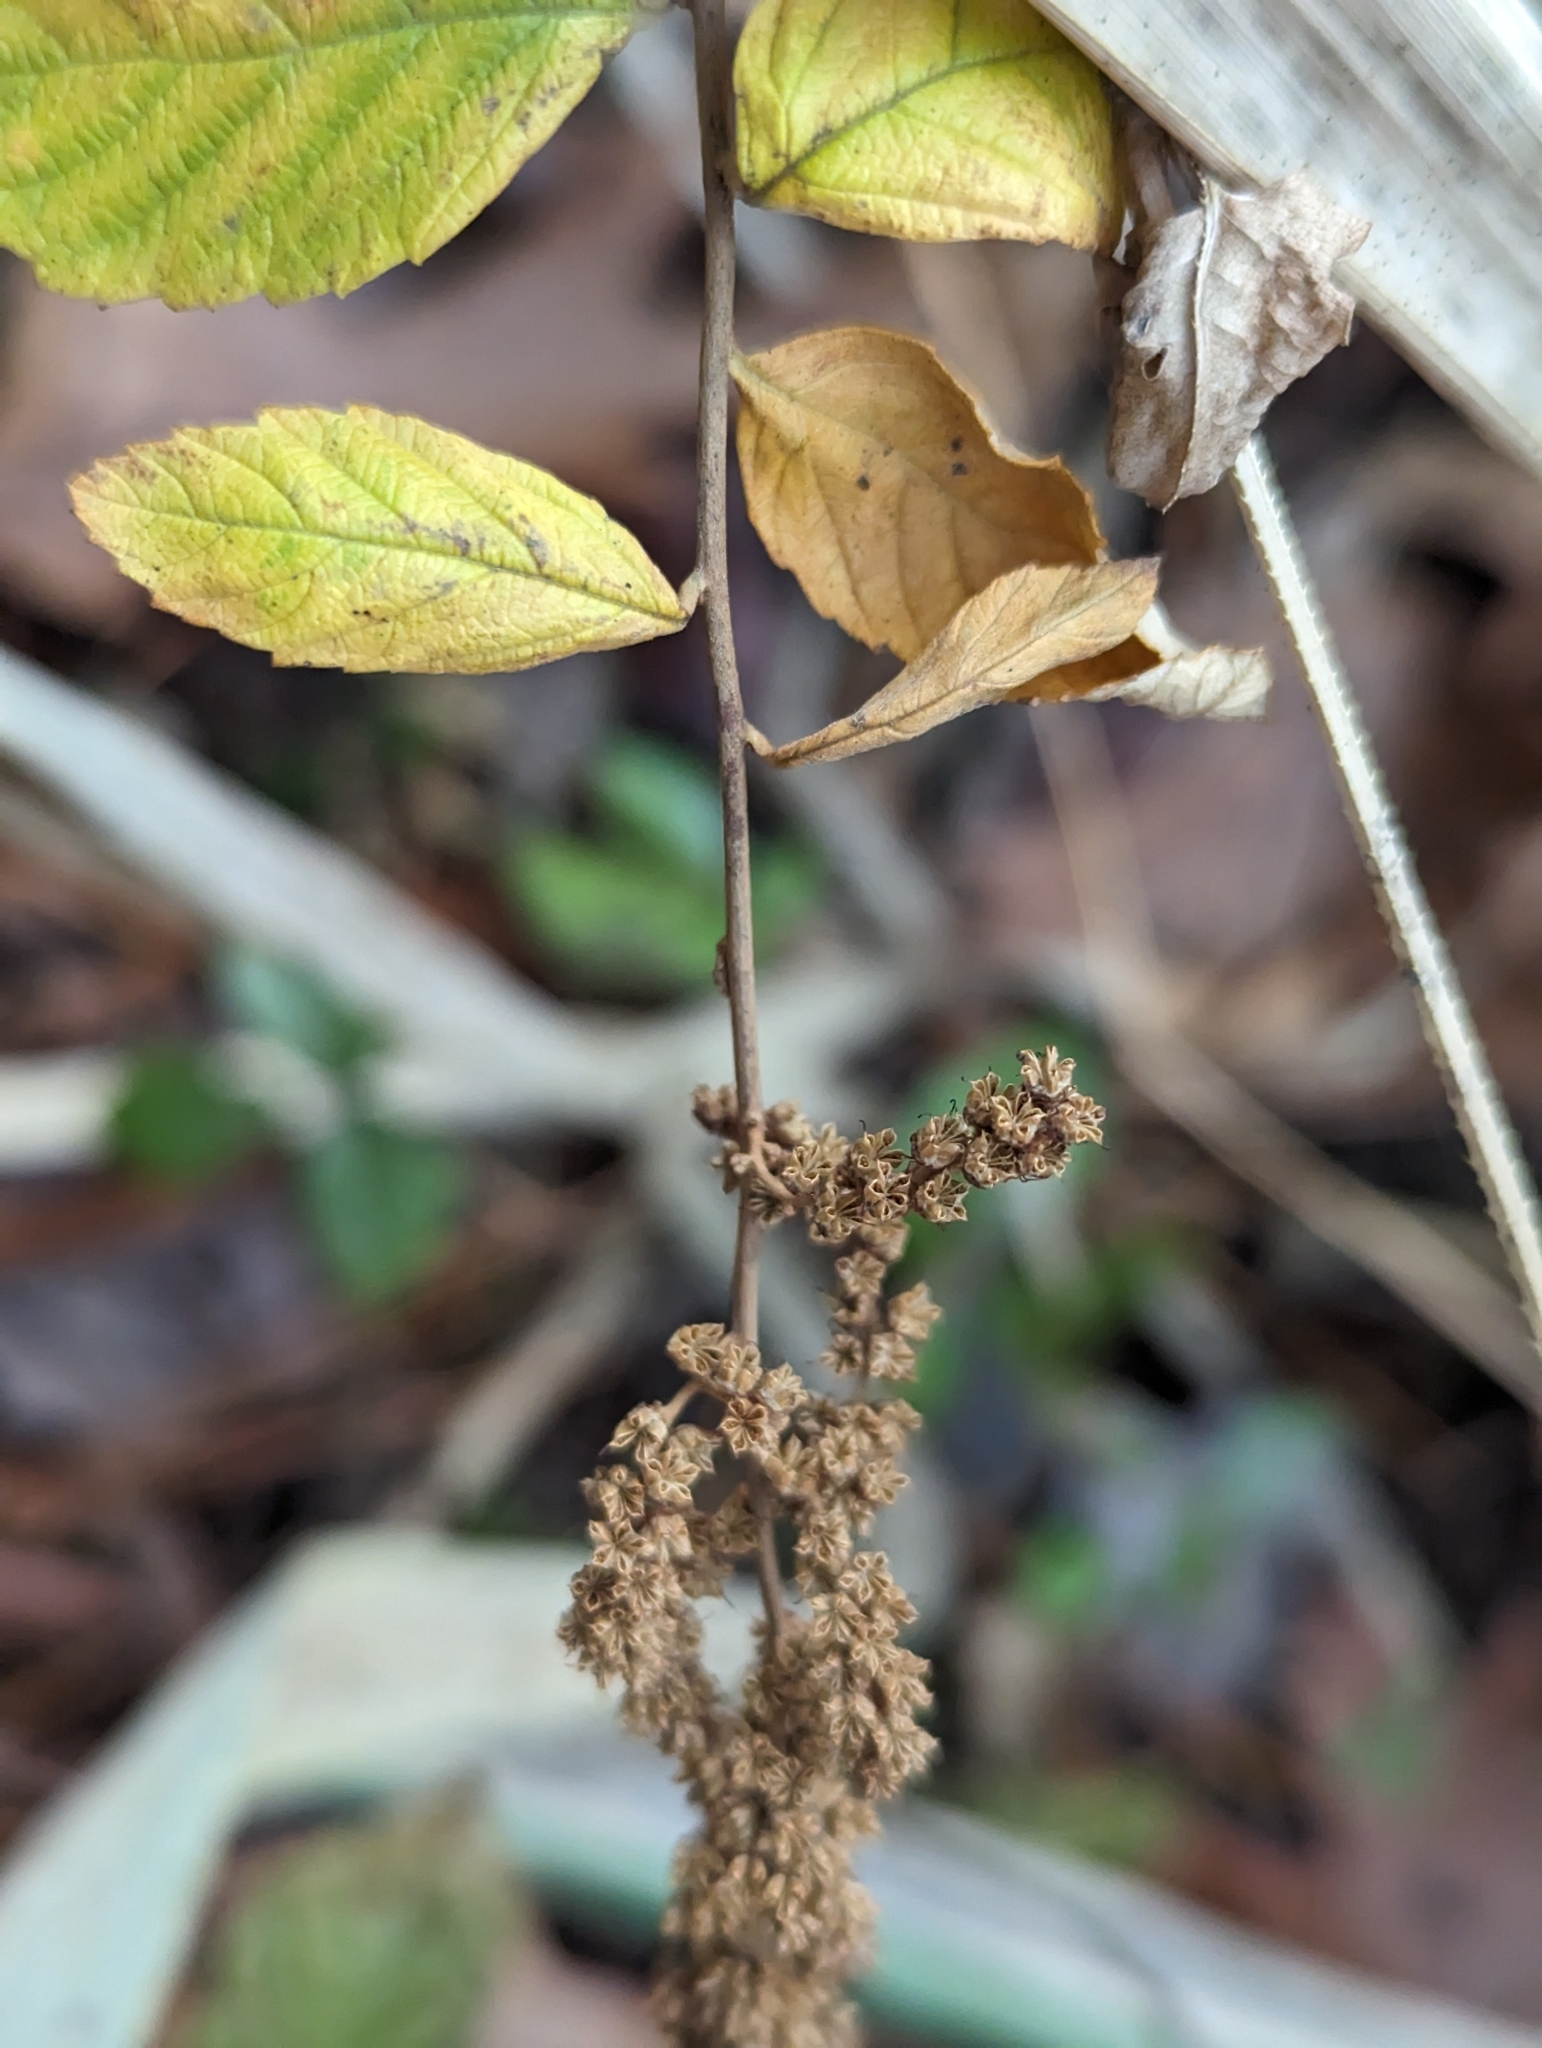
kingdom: Plantae
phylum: Tracheophyta
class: Magnoliopsida
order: Rosales
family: Rosaceae
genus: Spiraea
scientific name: Spiraea tomentosa
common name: Hardhack
